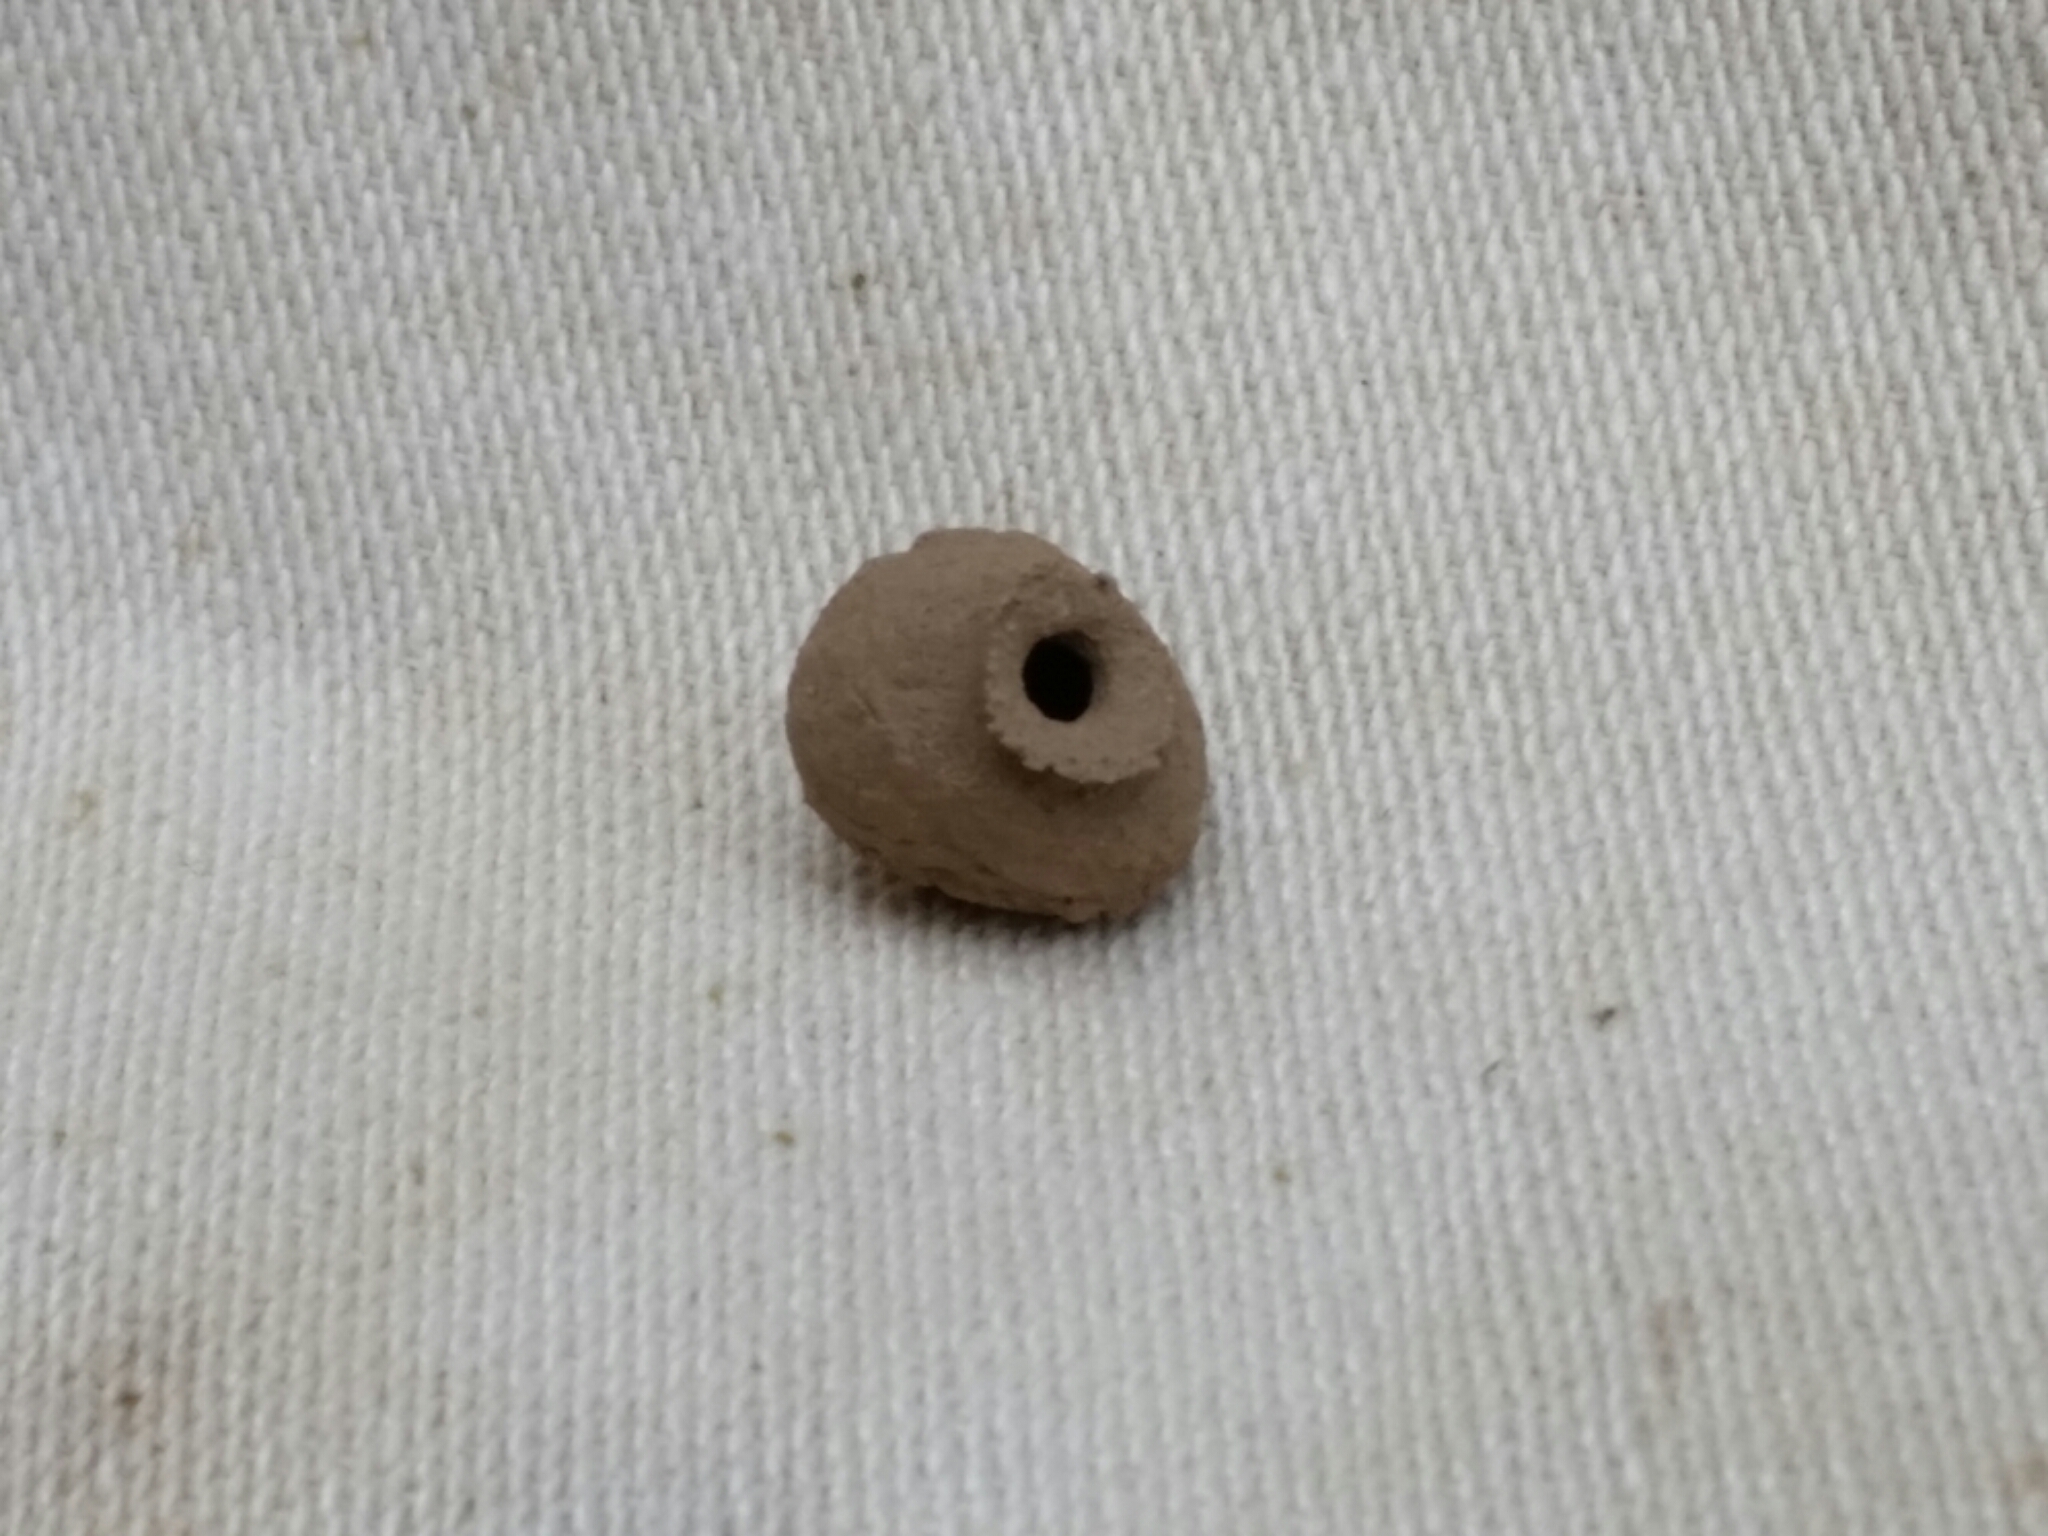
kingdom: Animalia
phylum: Arthropoda
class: Insecta
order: Hymenoptera
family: Vespidae
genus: Eumenes
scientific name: Eumenes
